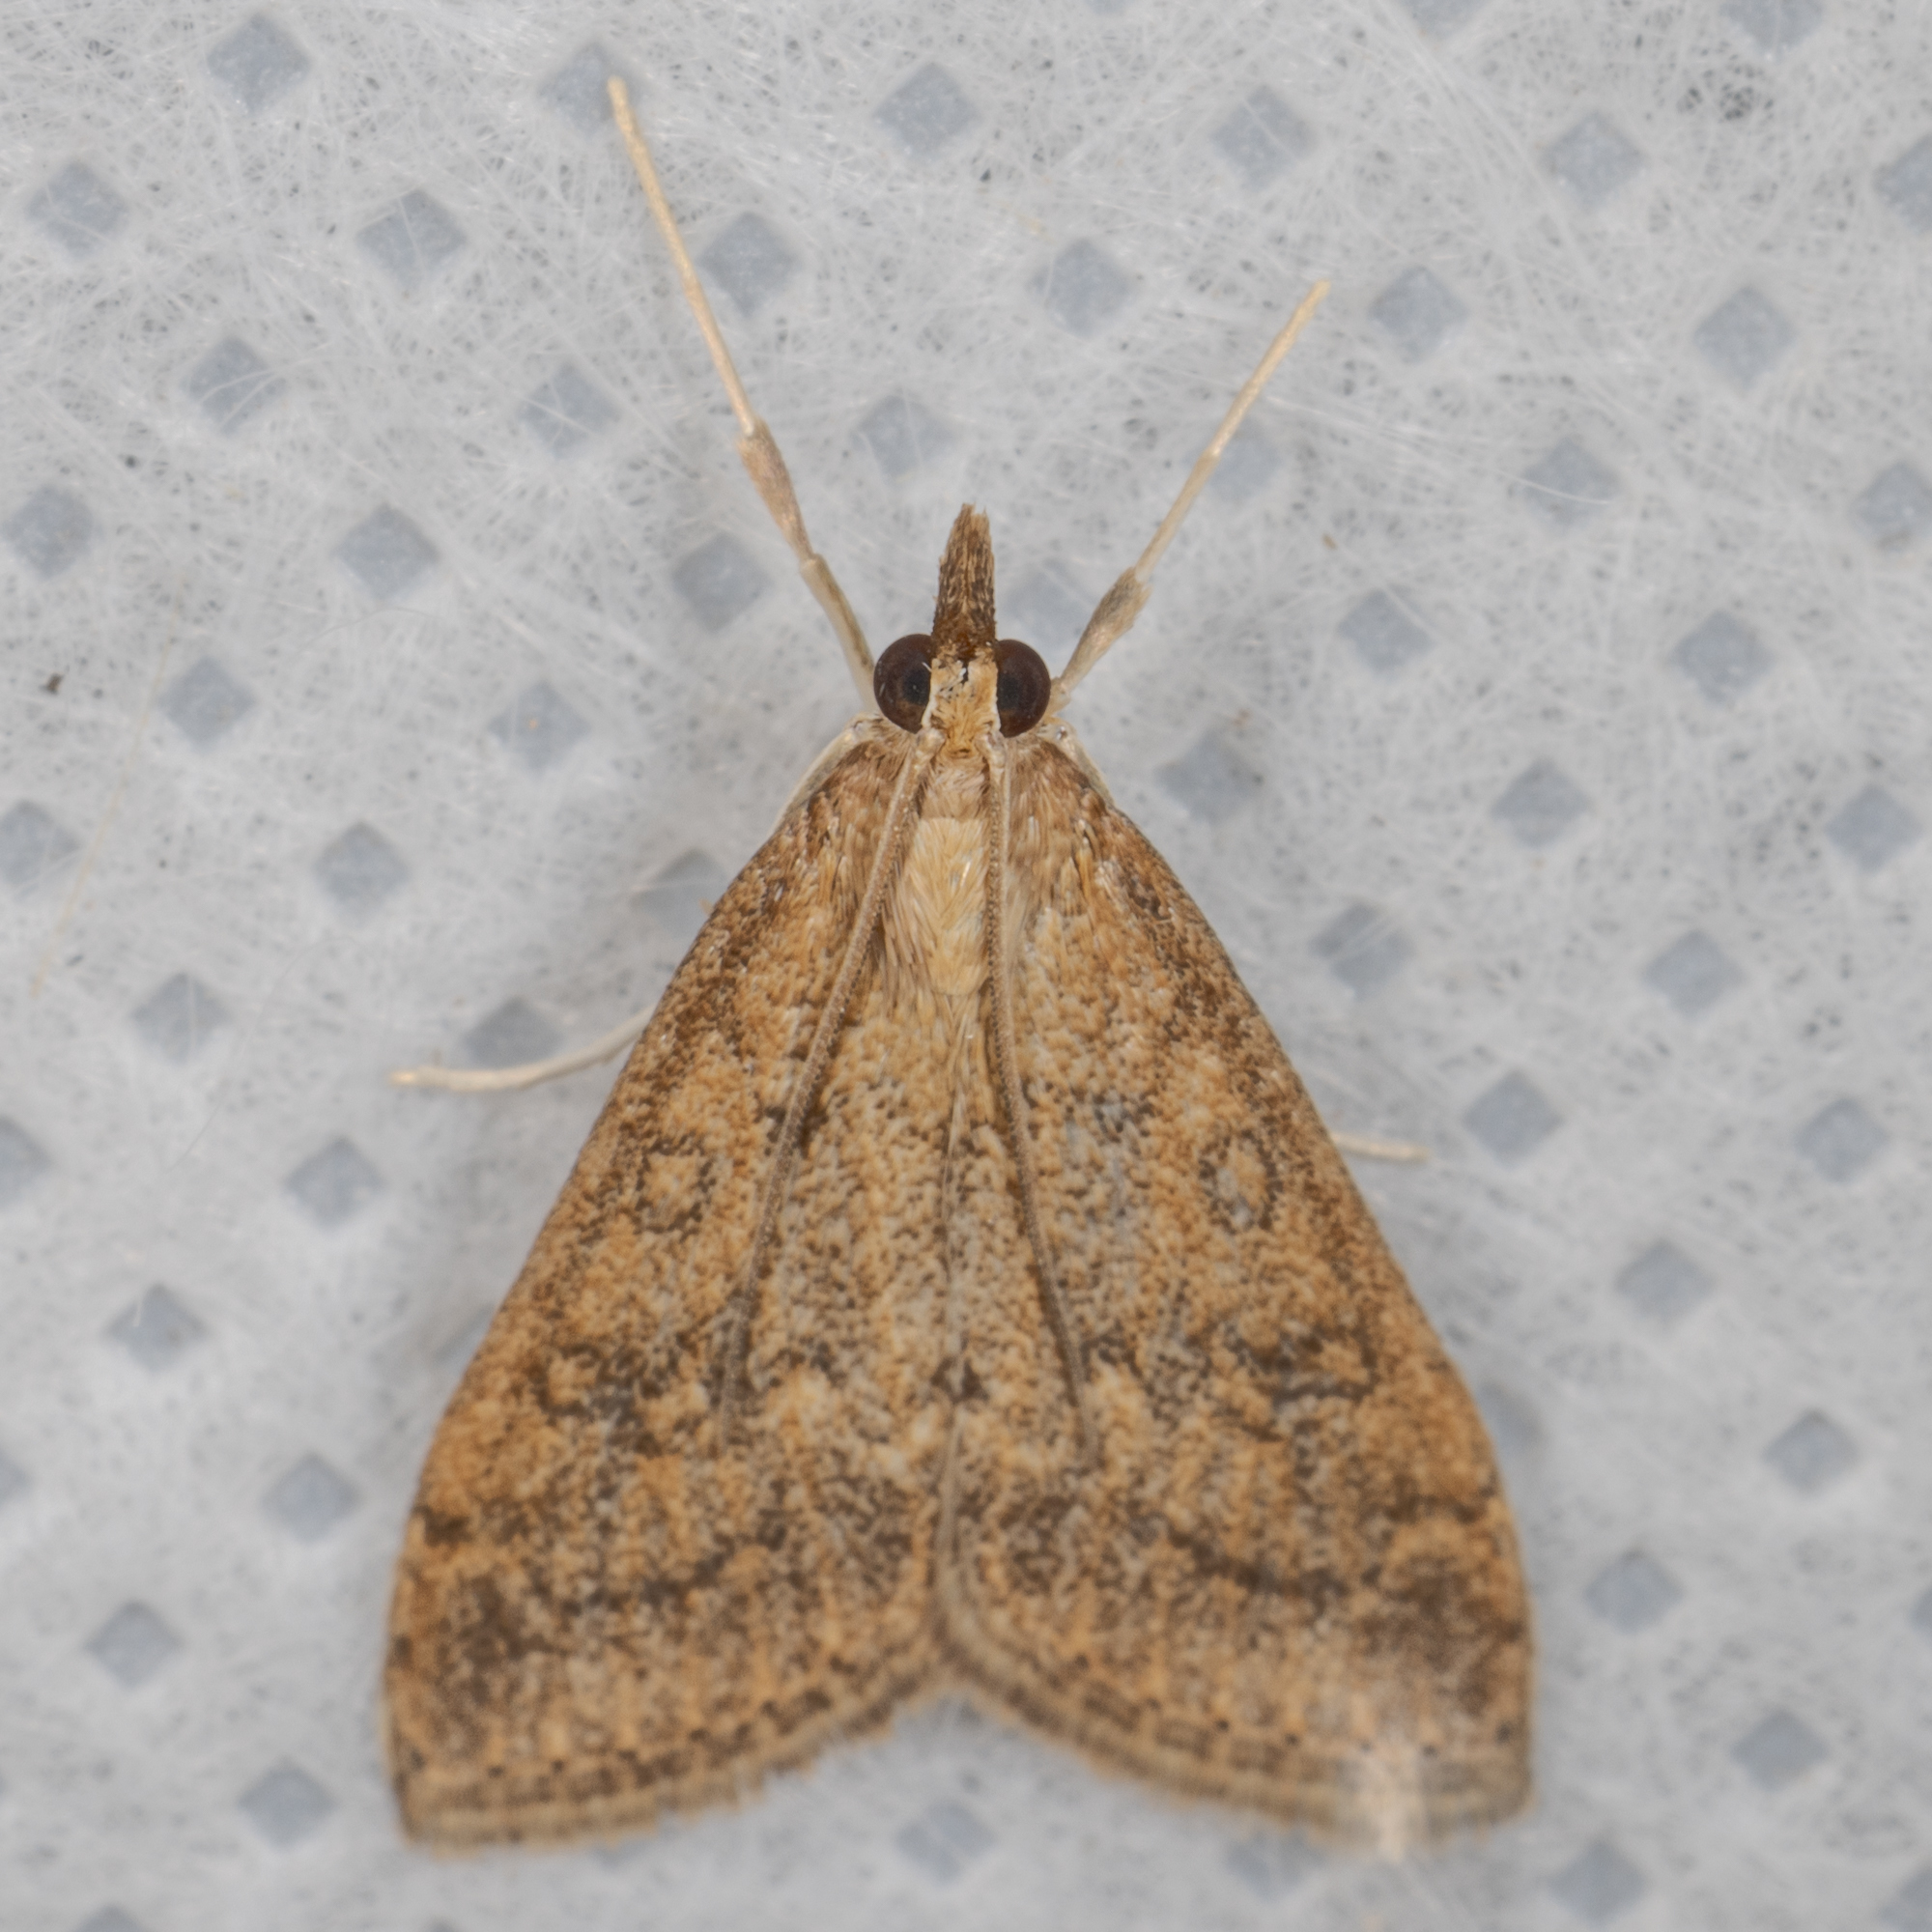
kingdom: Animalia
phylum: Arthropoda
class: Insecta
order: Lepidoptera
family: Crambidae
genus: Udea
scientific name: Udea rubigalis
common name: Celery leaftier moth
